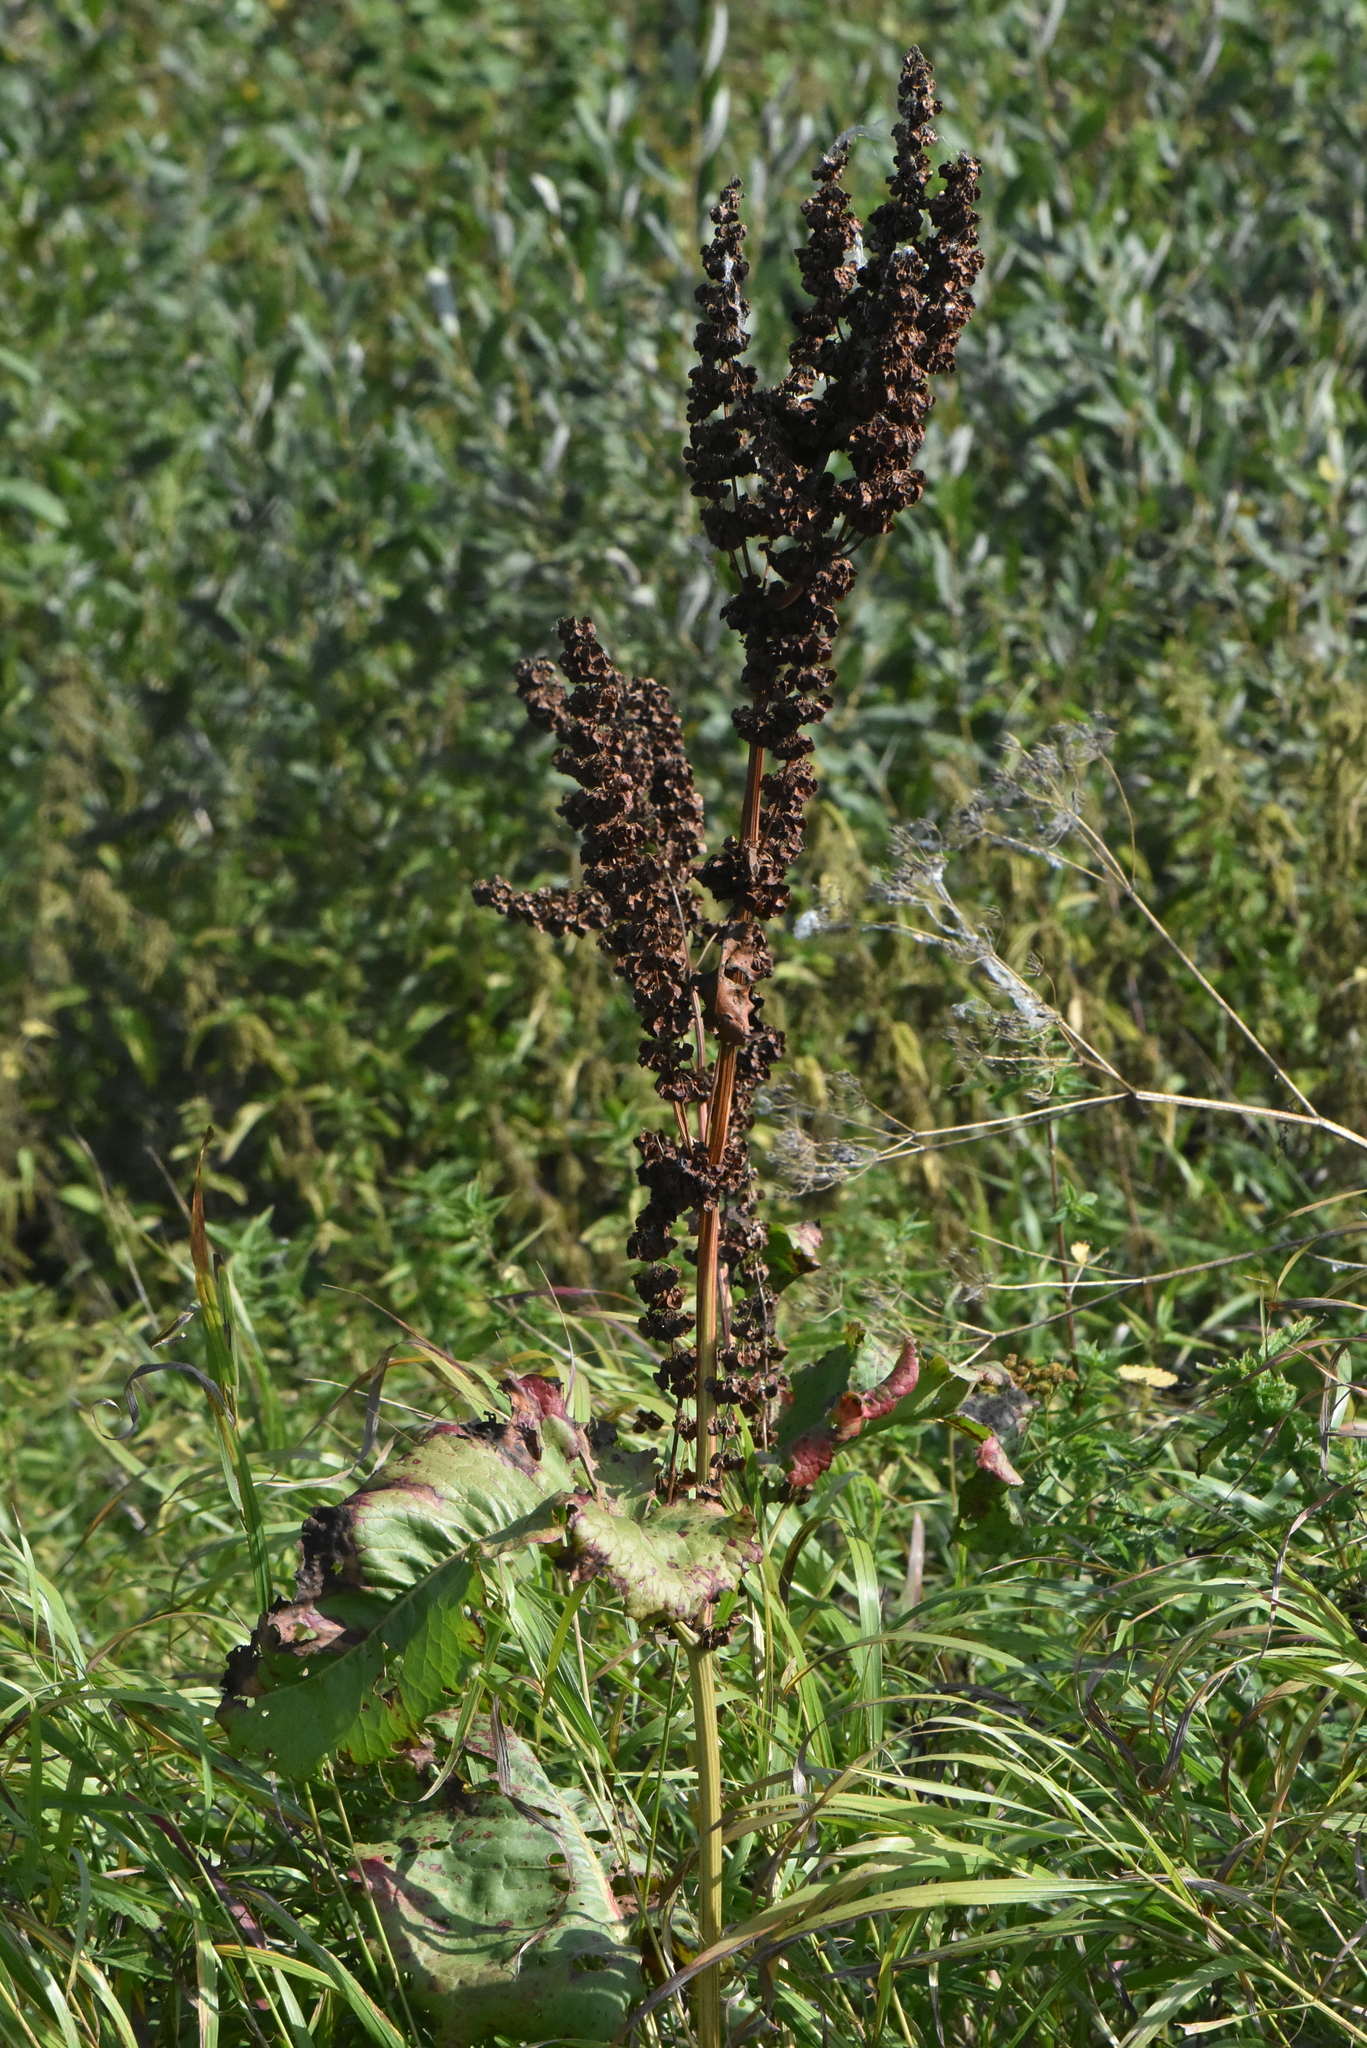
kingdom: Plantae
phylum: Tracheophyta
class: Magnoliopsida
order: Caryophyllales
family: Polygonaceae
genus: Rumex
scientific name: Rumex confertus
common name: Russian dock
